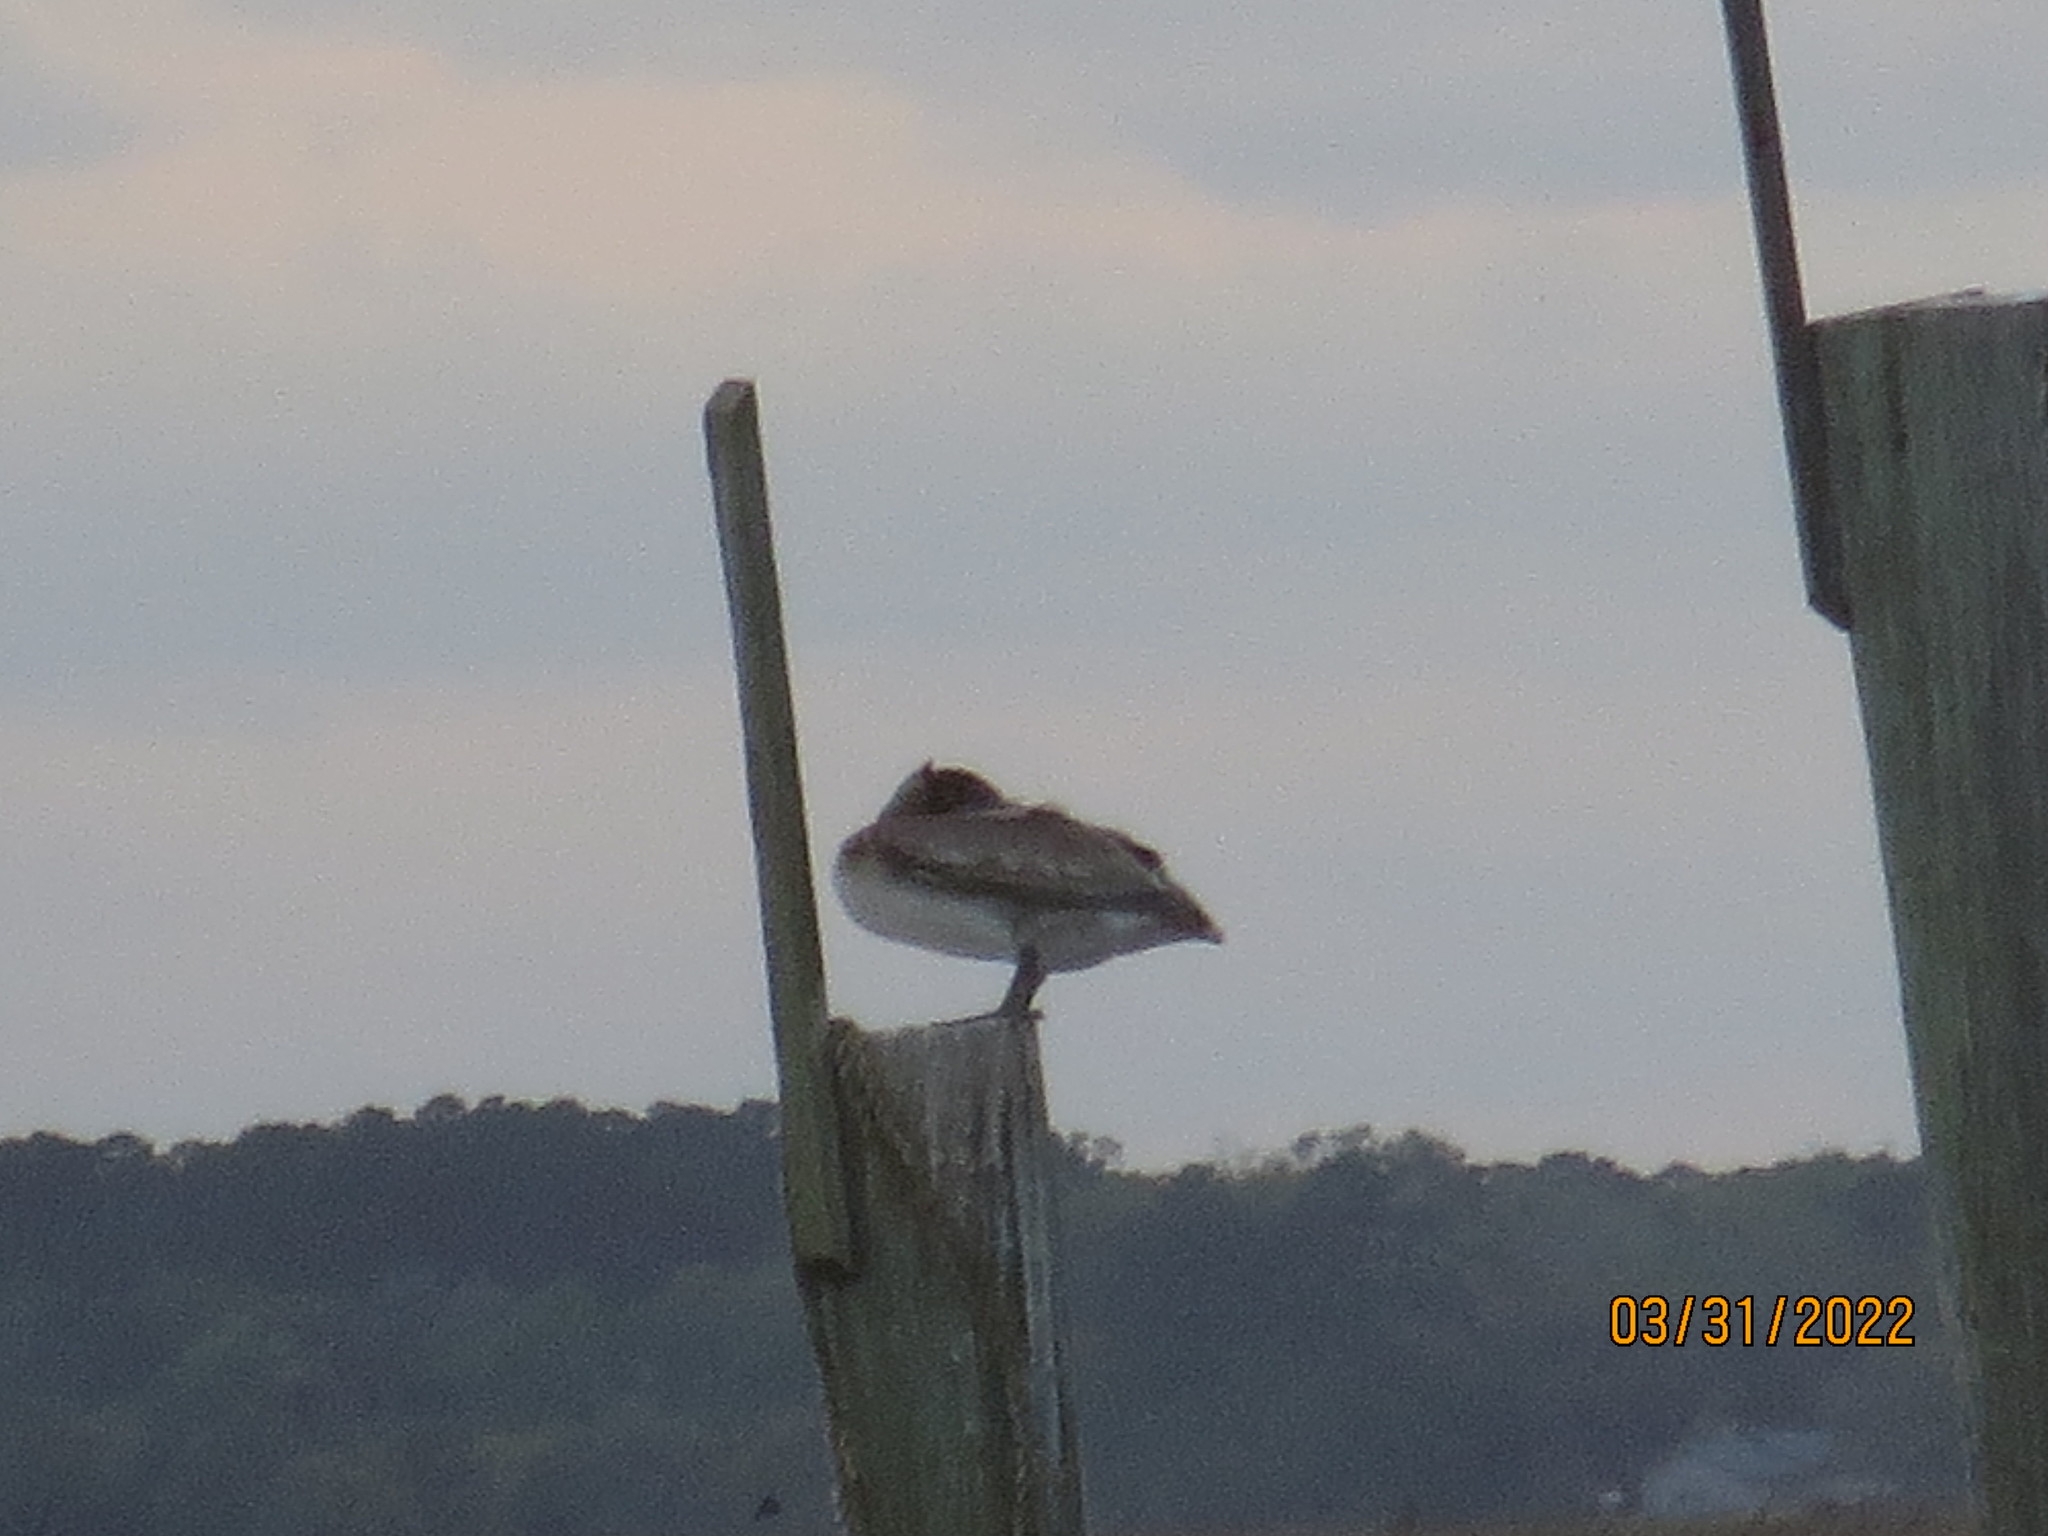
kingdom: Animalia
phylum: Chordata
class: Aves
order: Pelecaniformes
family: Pelecanidae
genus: Pelecanus
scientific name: Pelecanus occidentalis
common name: Brown pelican
